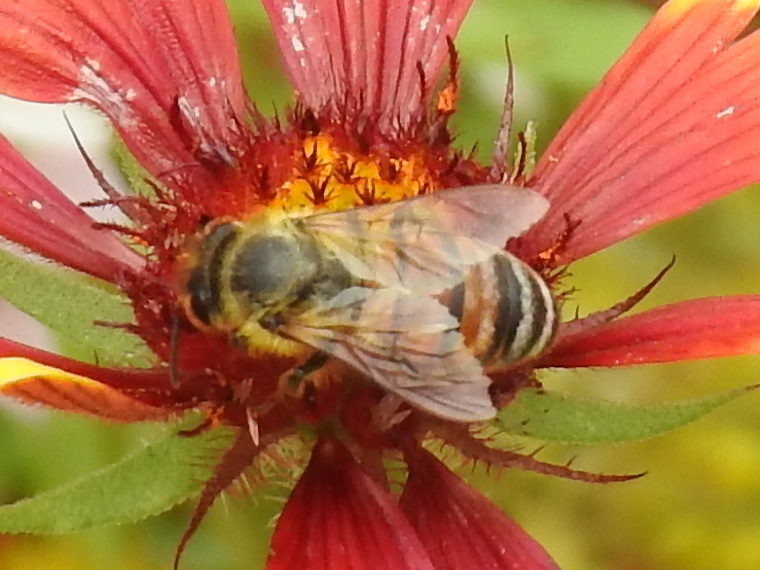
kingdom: Animalia
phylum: Arthropoda
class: Insecta
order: Hymenoptera
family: Apidae
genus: Apis
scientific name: Apis mellifera
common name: Honey bee
